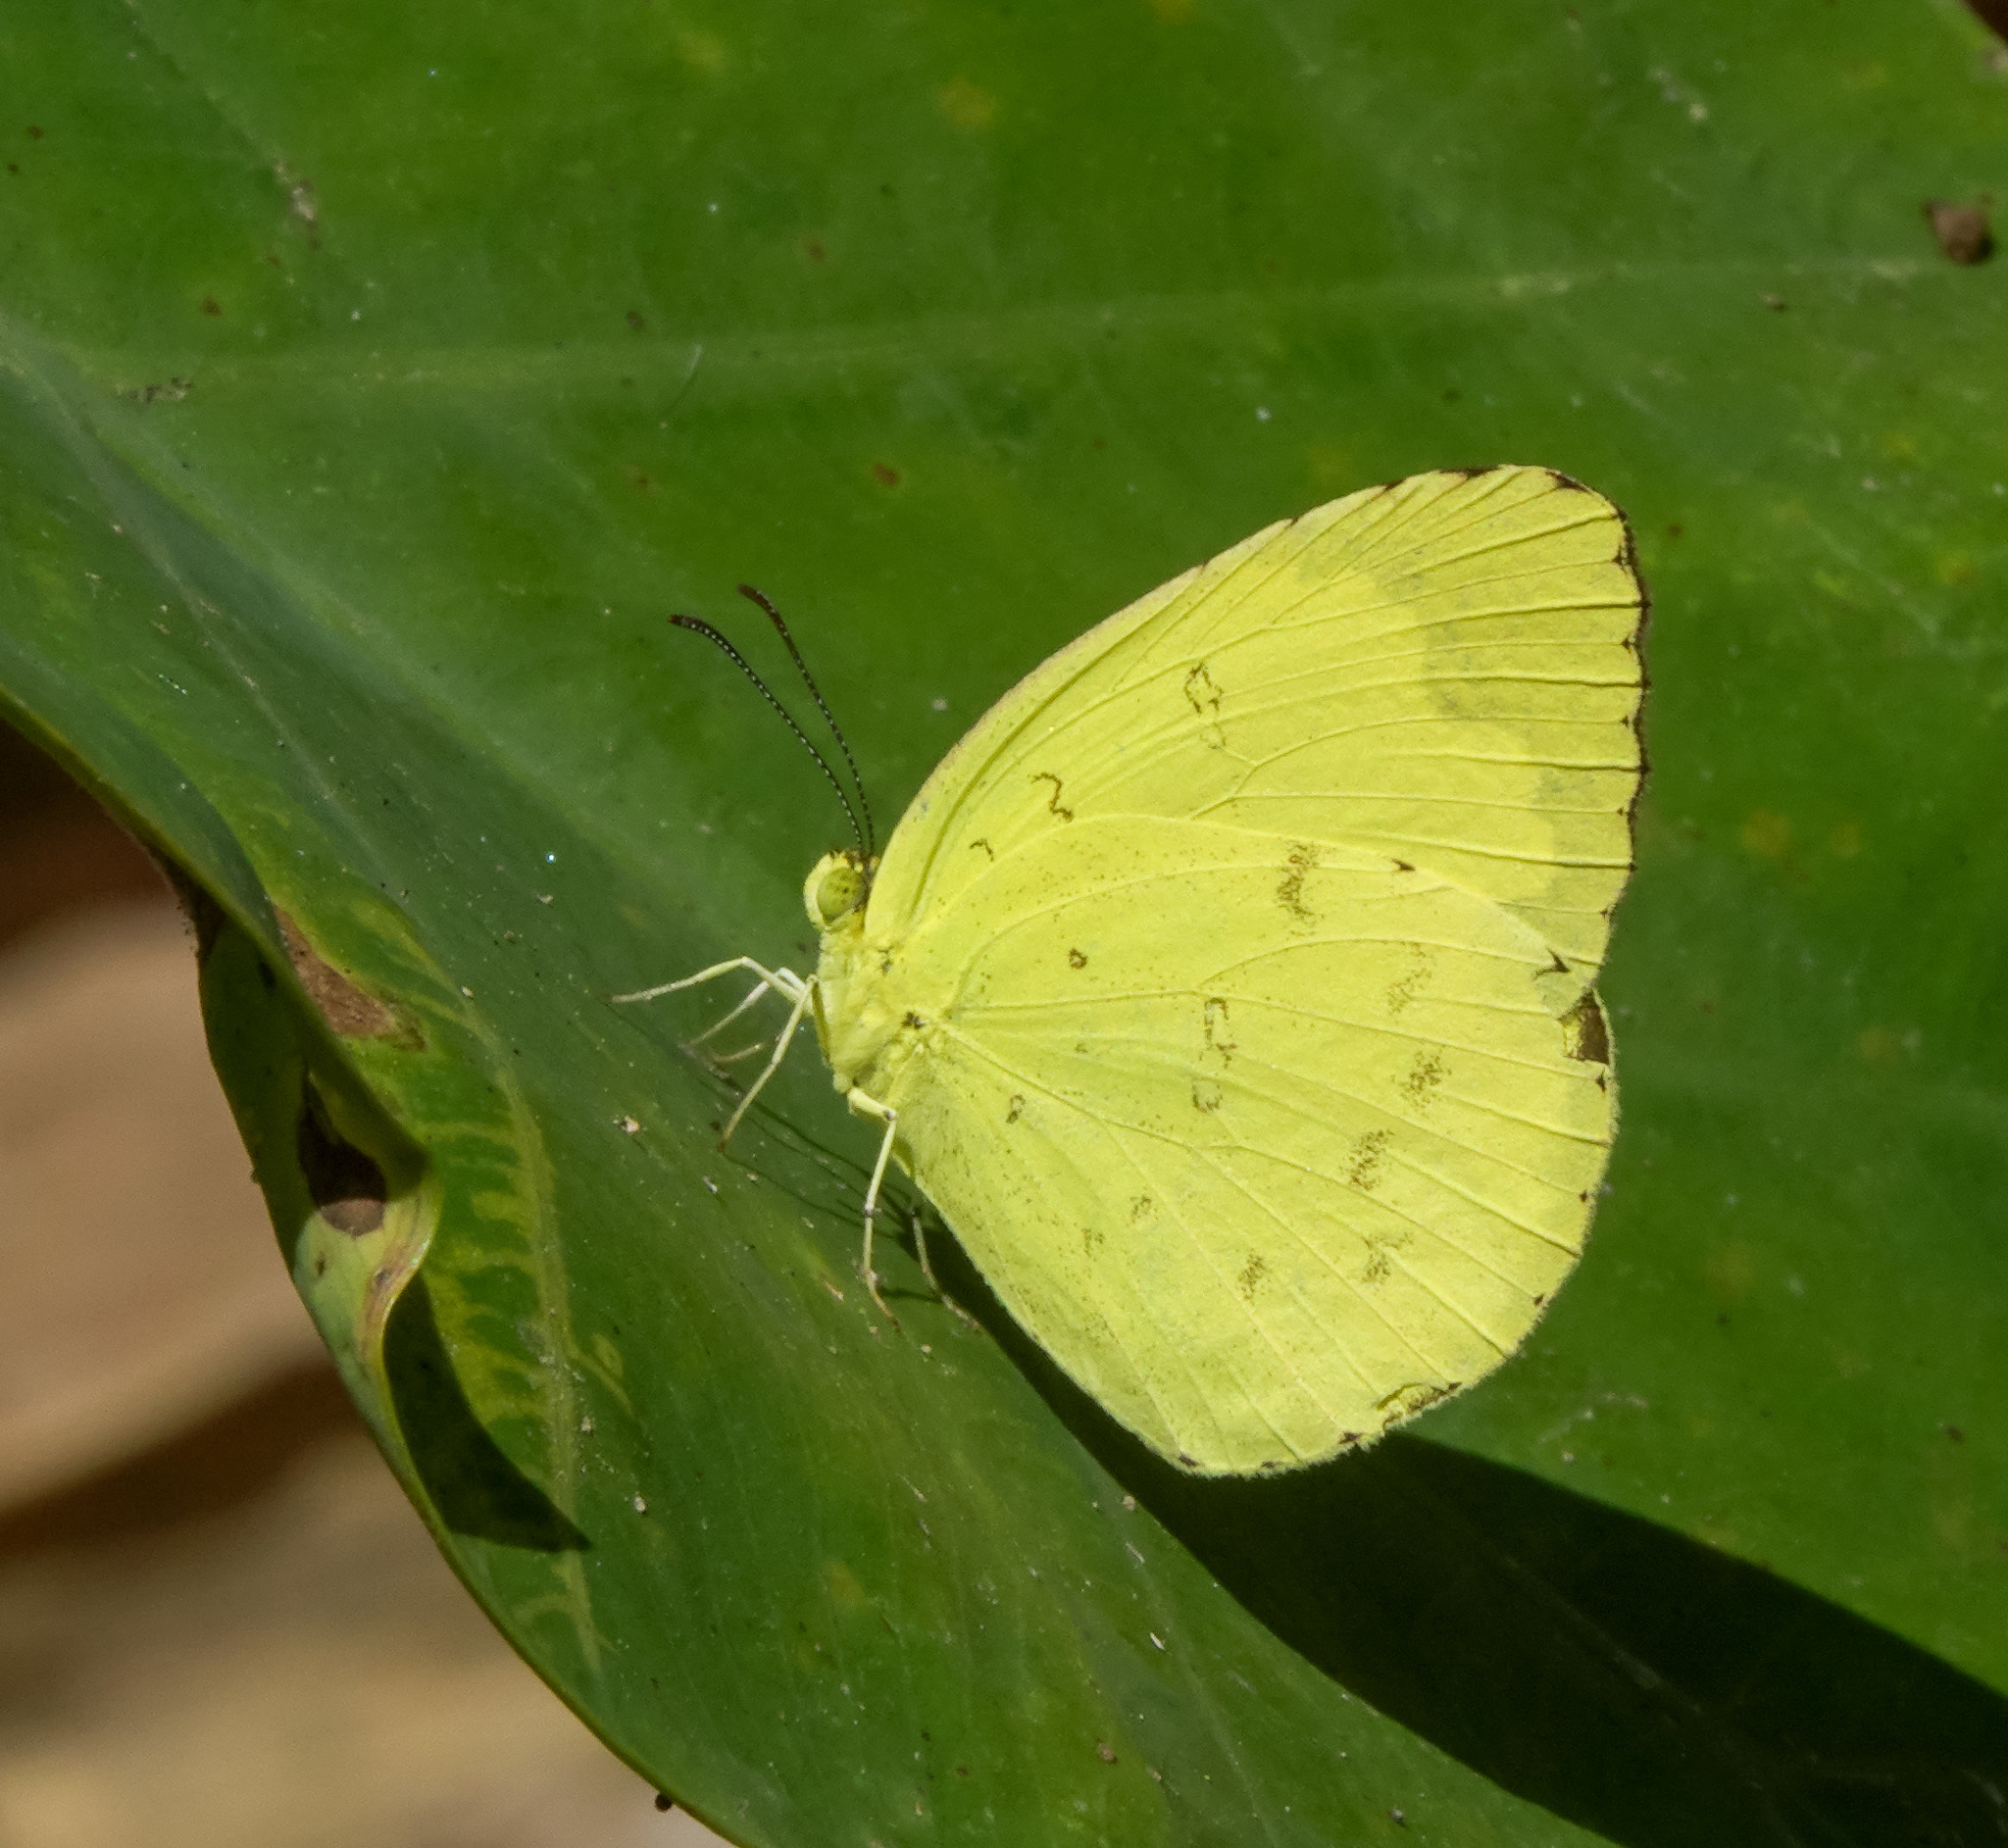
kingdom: Animalia
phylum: Arthropoda
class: Insecta
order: Lepidoptera
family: Pieridae
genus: Eurema
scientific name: Eurema hecabe
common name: Pale grass yellow
